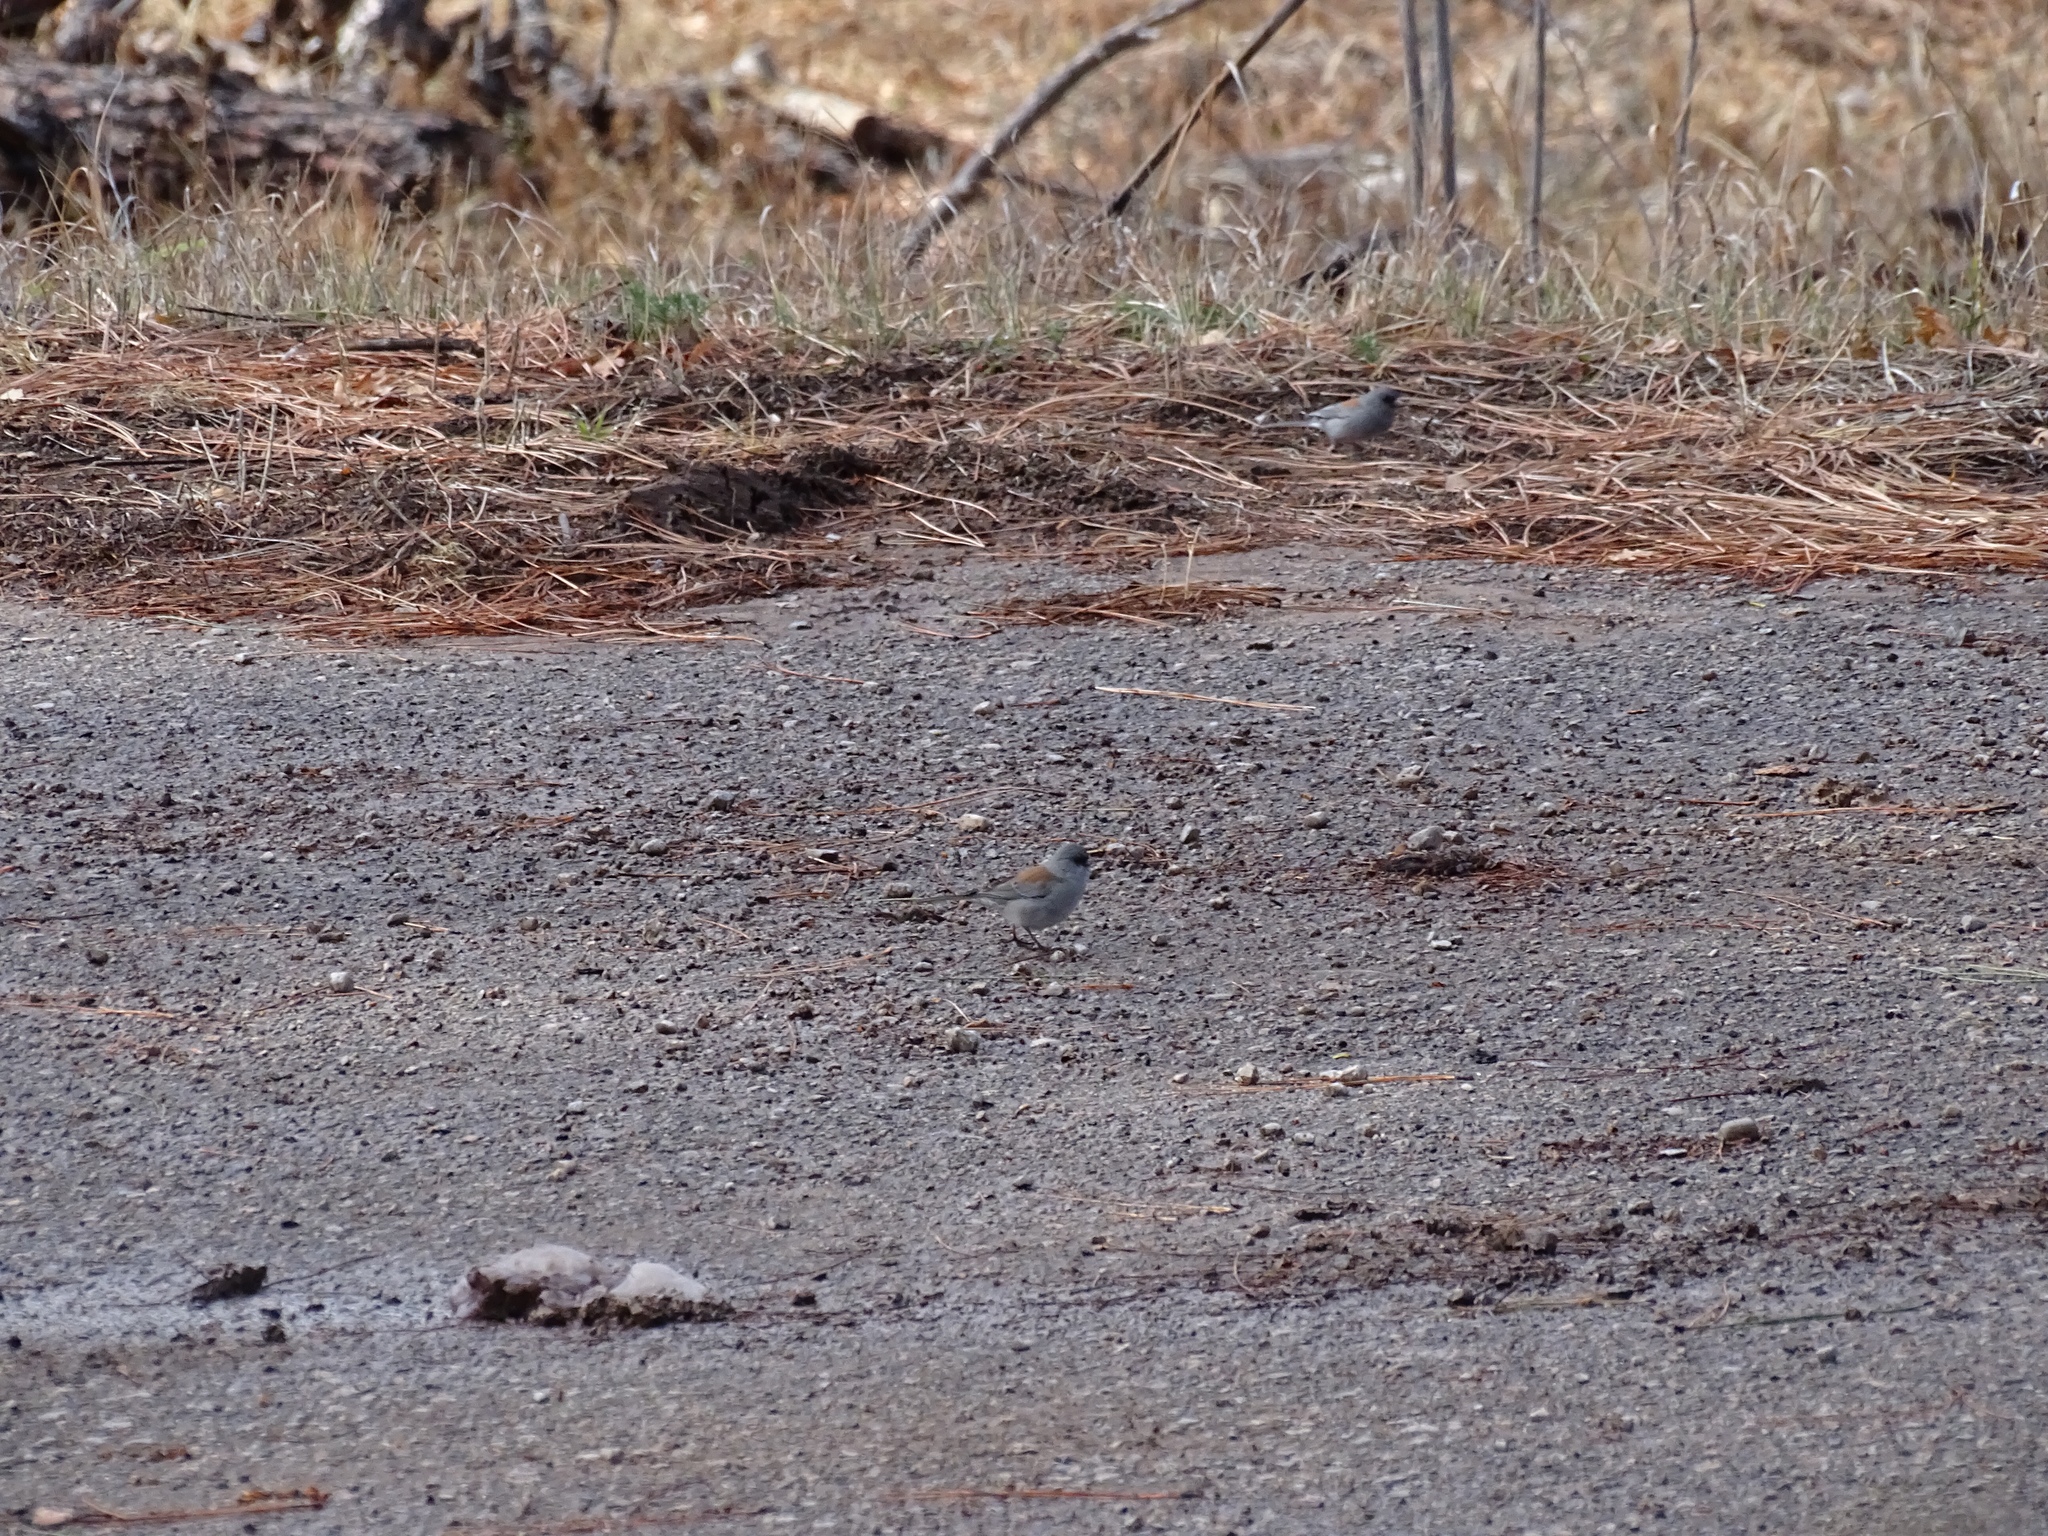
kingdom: Animalia
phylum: Chordata
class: Aves
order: Passeriformes
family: Passerellidae
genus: Junco
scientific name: Junco hyemalis
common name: Dark-eyed junco
